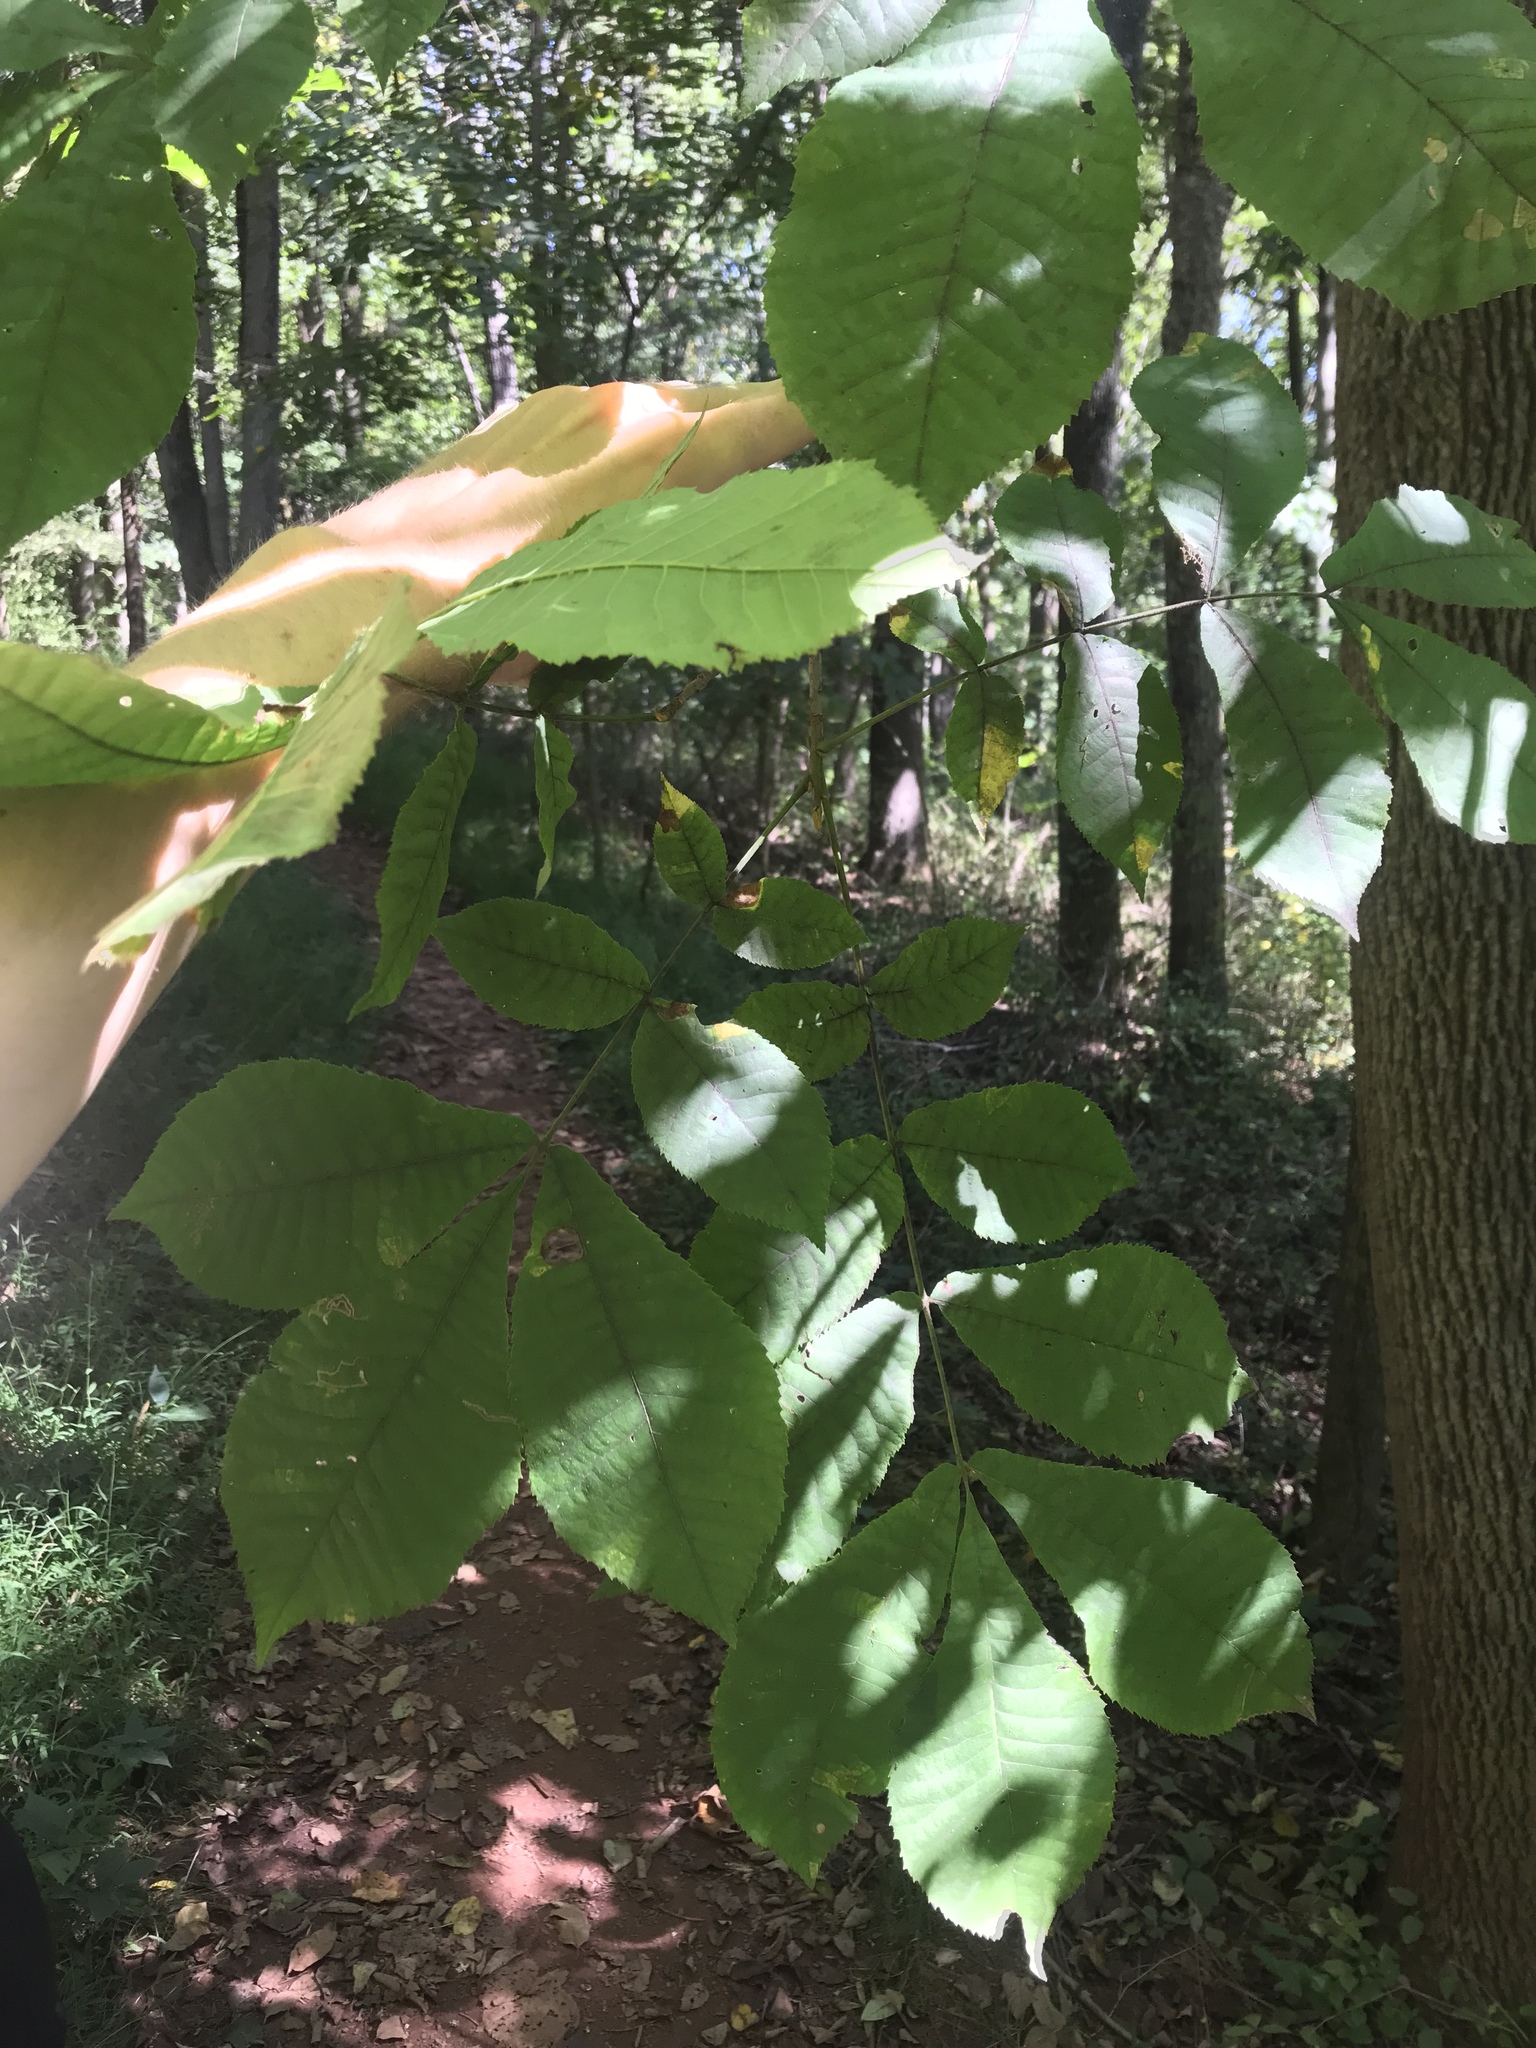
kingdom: Plantae
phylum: Tracheophyta
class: Magnoliopsida
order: Fagales
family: Juglandaceae
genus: Carya
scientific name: Carya alba
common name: Mockernut hickory
